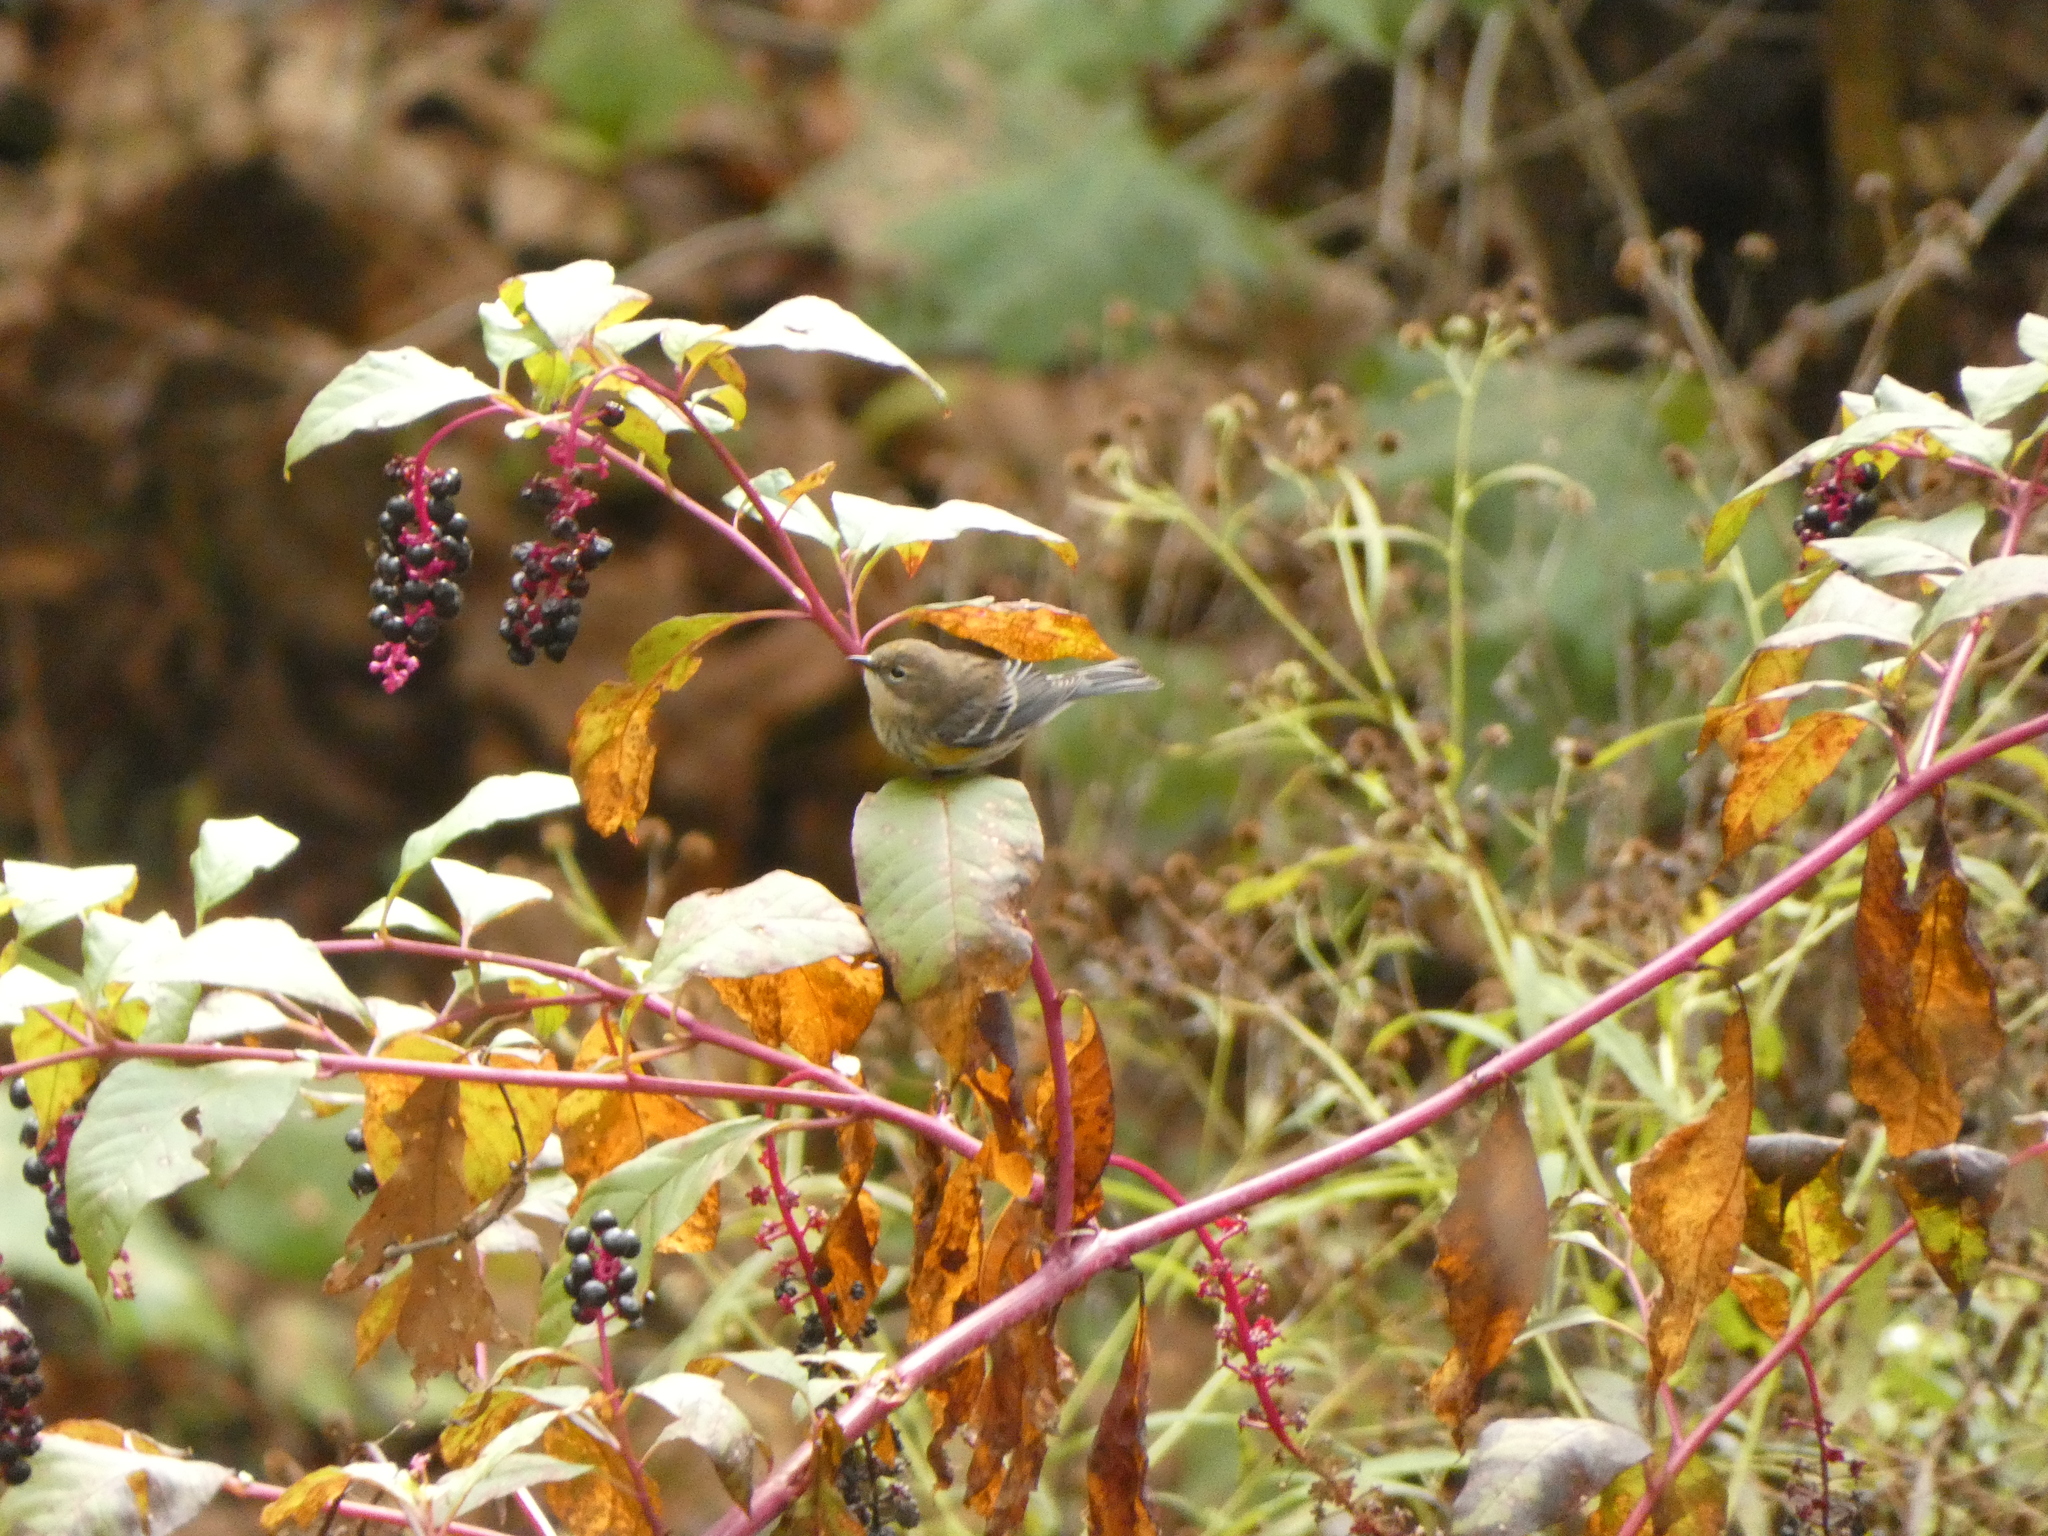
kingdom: Animalia
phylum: Chordata
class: Aves
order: Passeriformes
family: Parulidae
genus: Setophaga
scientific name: Setophaga coronata
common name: Myrtle warbler
